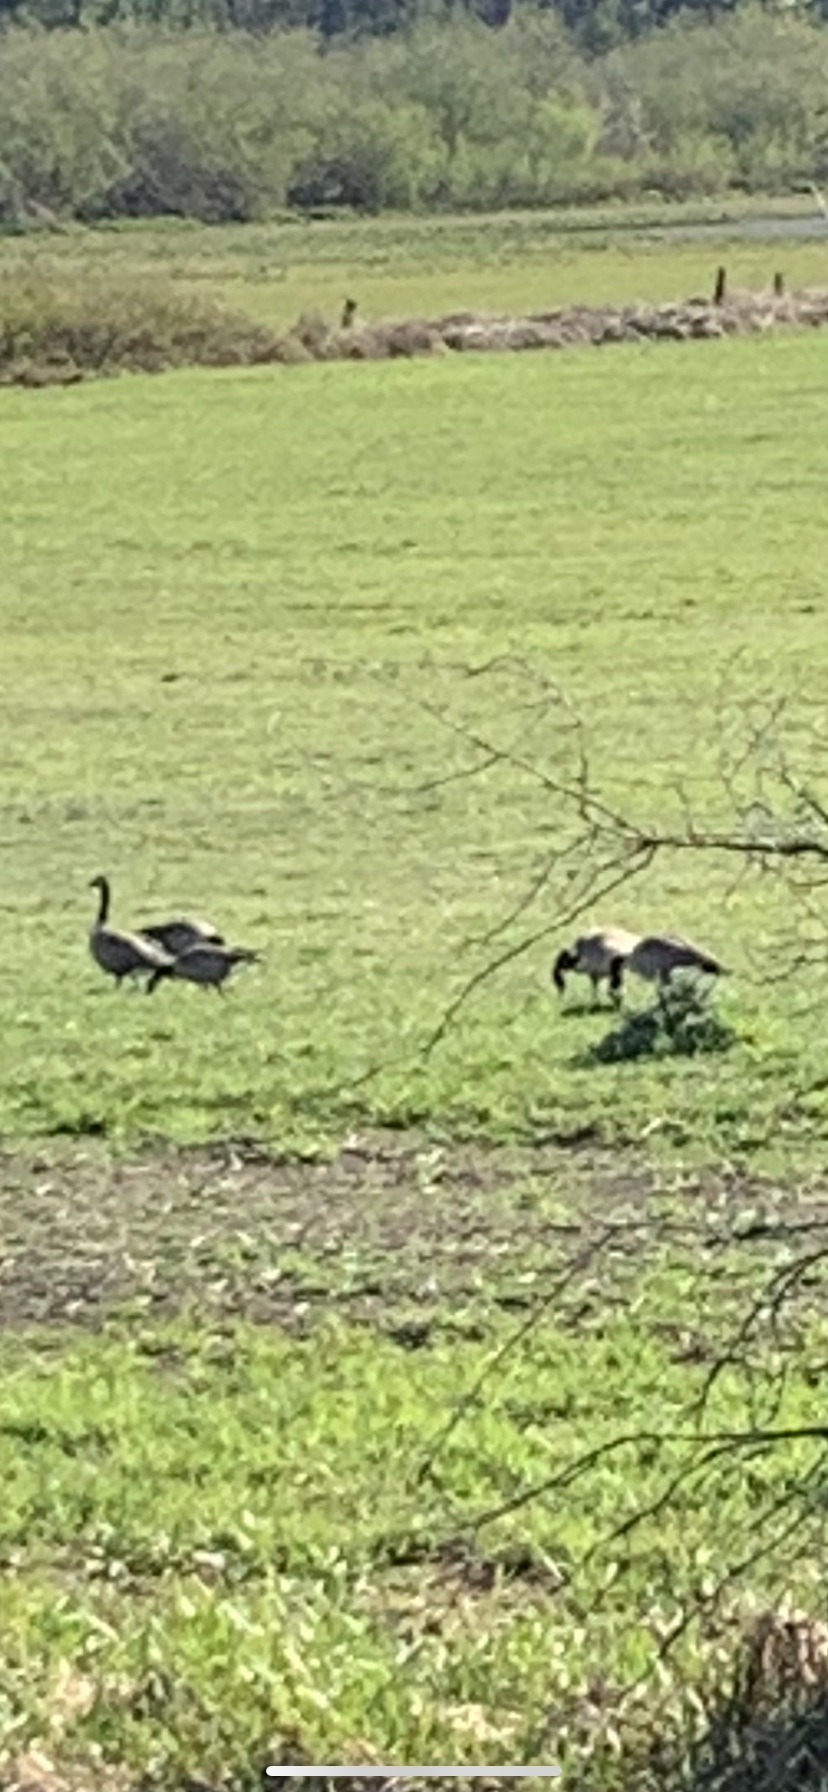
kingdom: Animalia
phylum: Chordata
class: Aves
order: Anseriformes
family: Anatidae
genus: Branta
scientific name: Branta canadensis
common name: Canada goose
